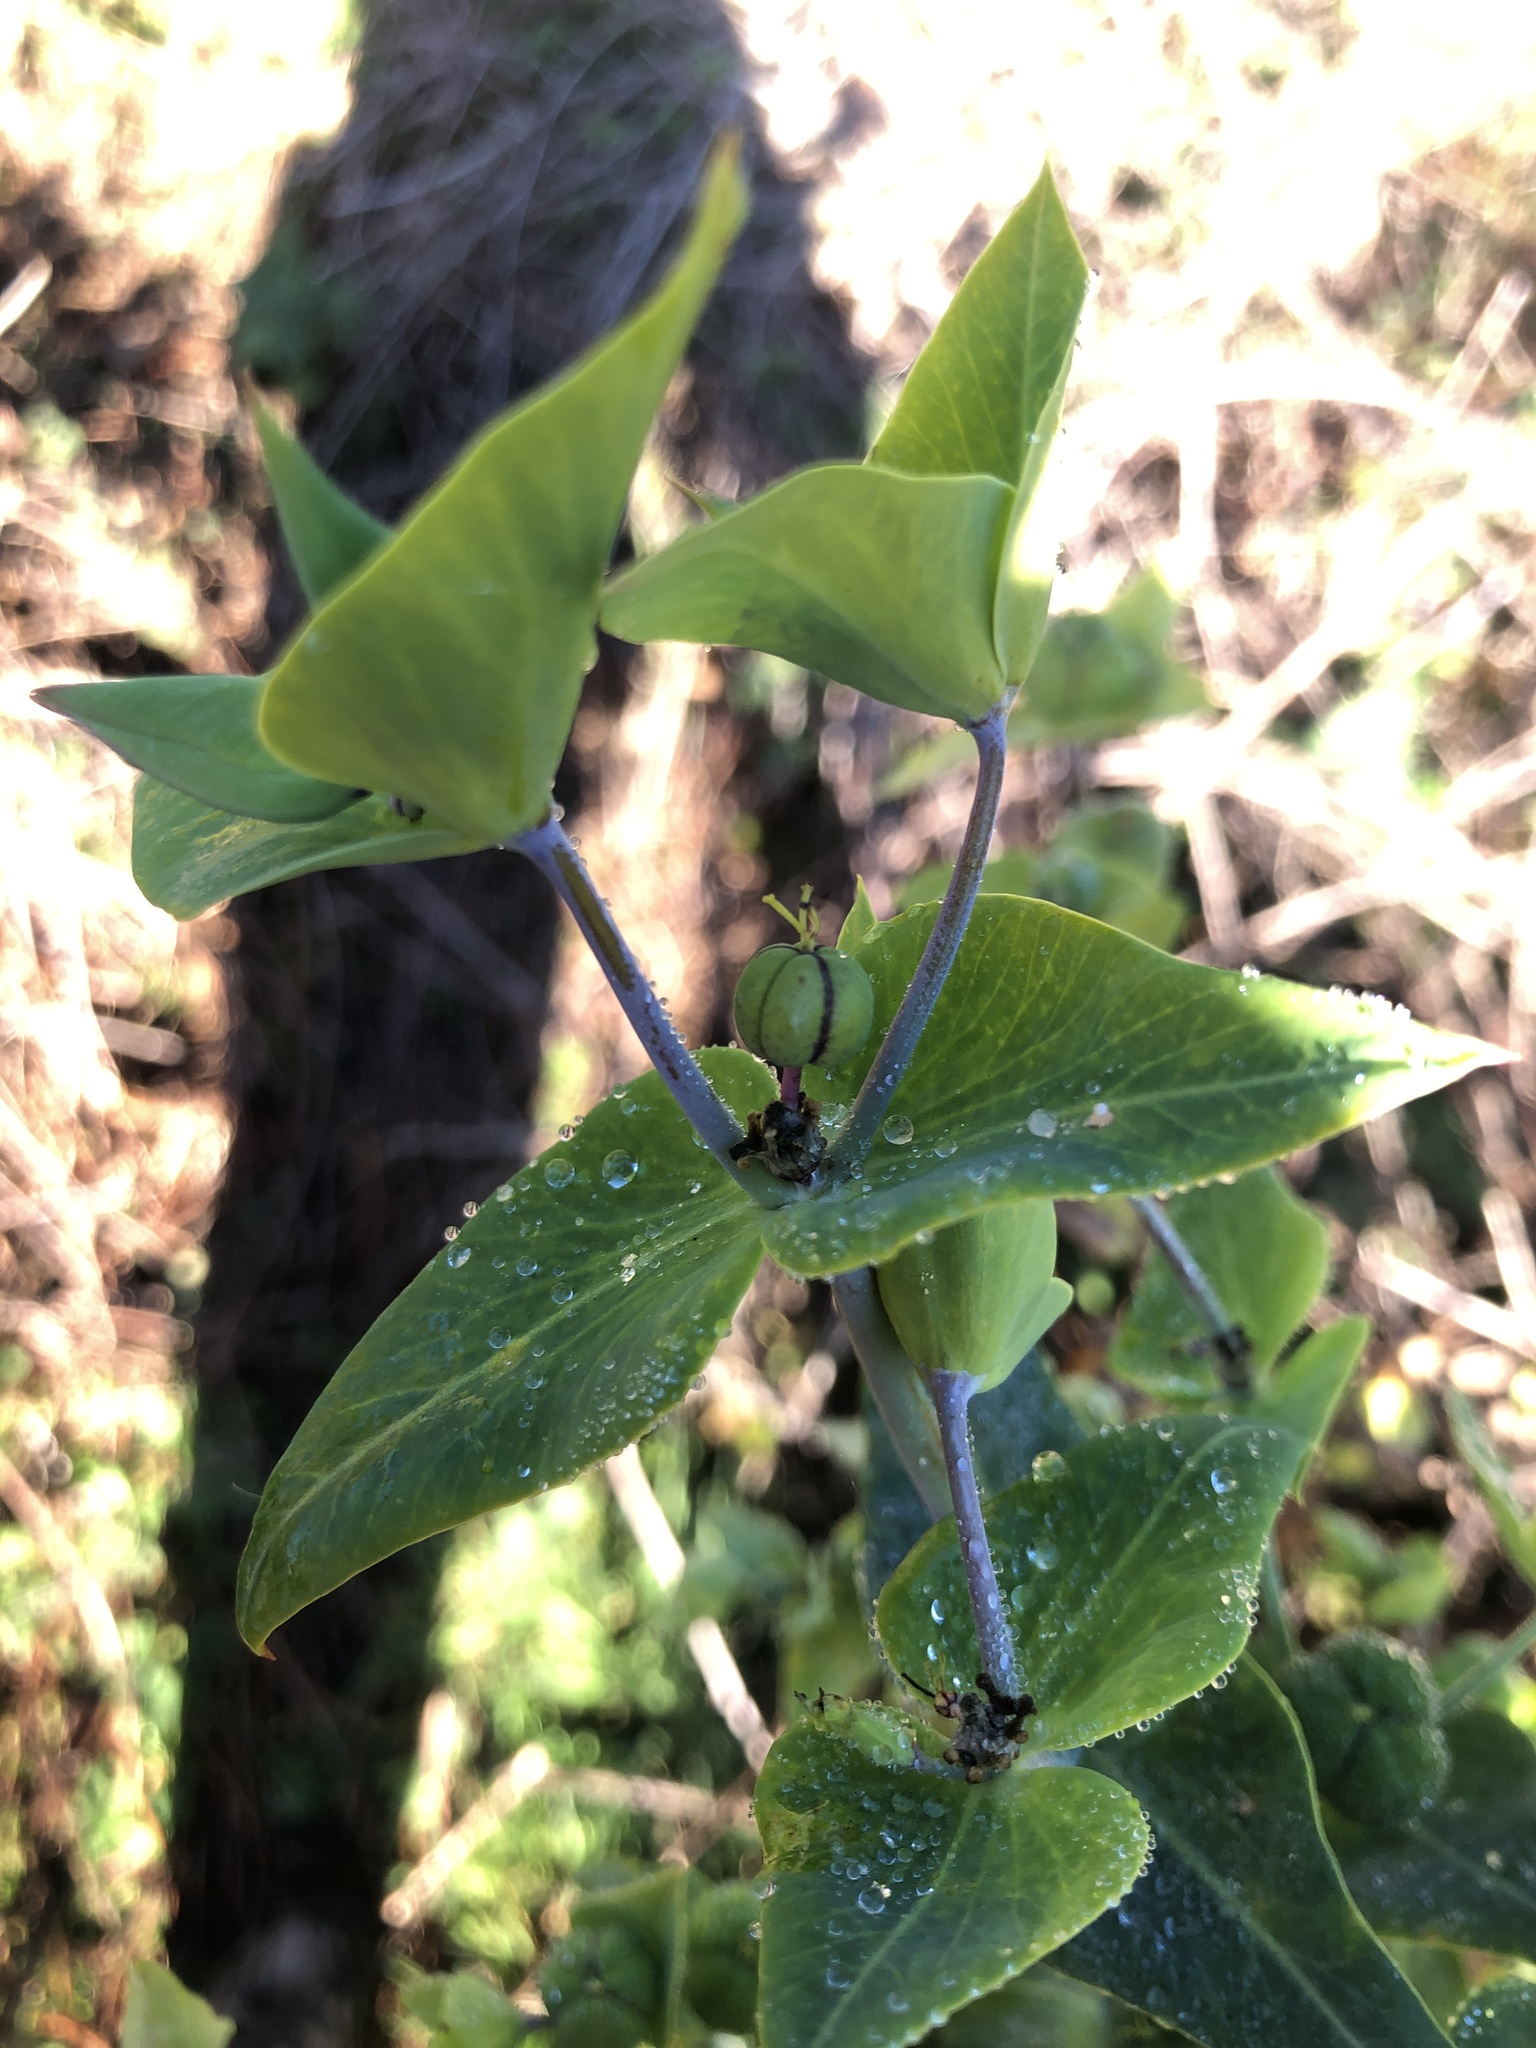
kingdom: Plantae
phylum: Tracheophyta
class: Magnoliopsida
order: Malpighiales
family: Euphorbiaceae
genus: Euphorbia
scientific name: Euphorbia lathyris
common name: Caper spurge
